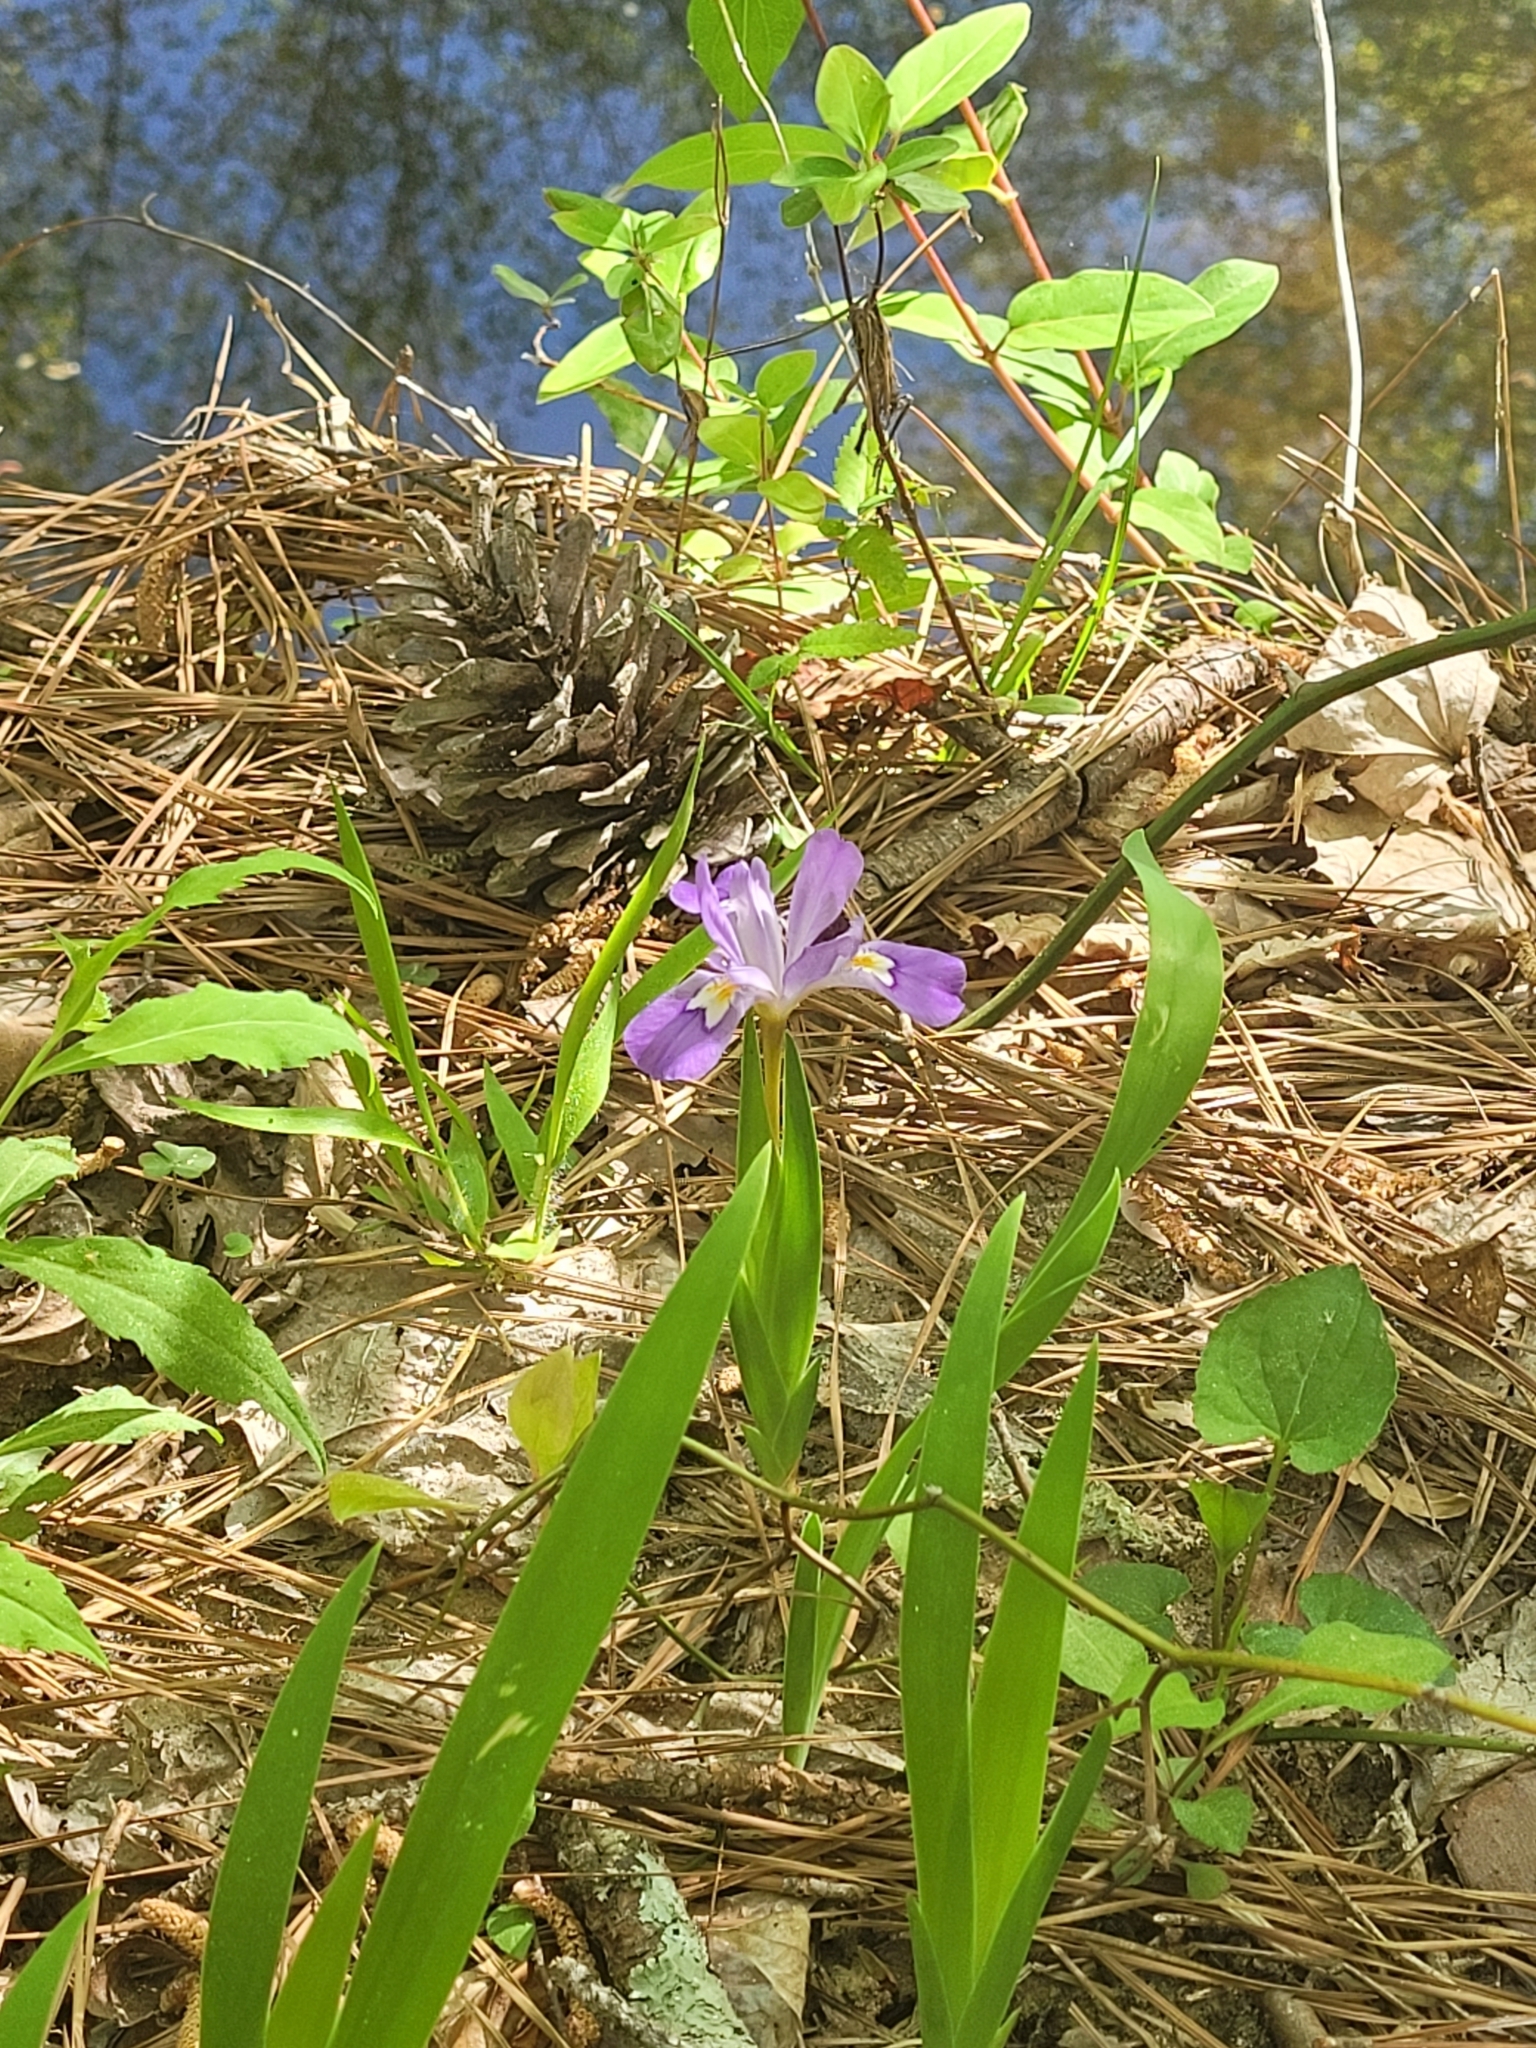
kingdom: Plantae
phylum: Tracheophyta
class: Liliopsida
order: Asparagales
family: Iridaceae
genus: Iris
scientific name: Iris cristata
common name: Crested iris
